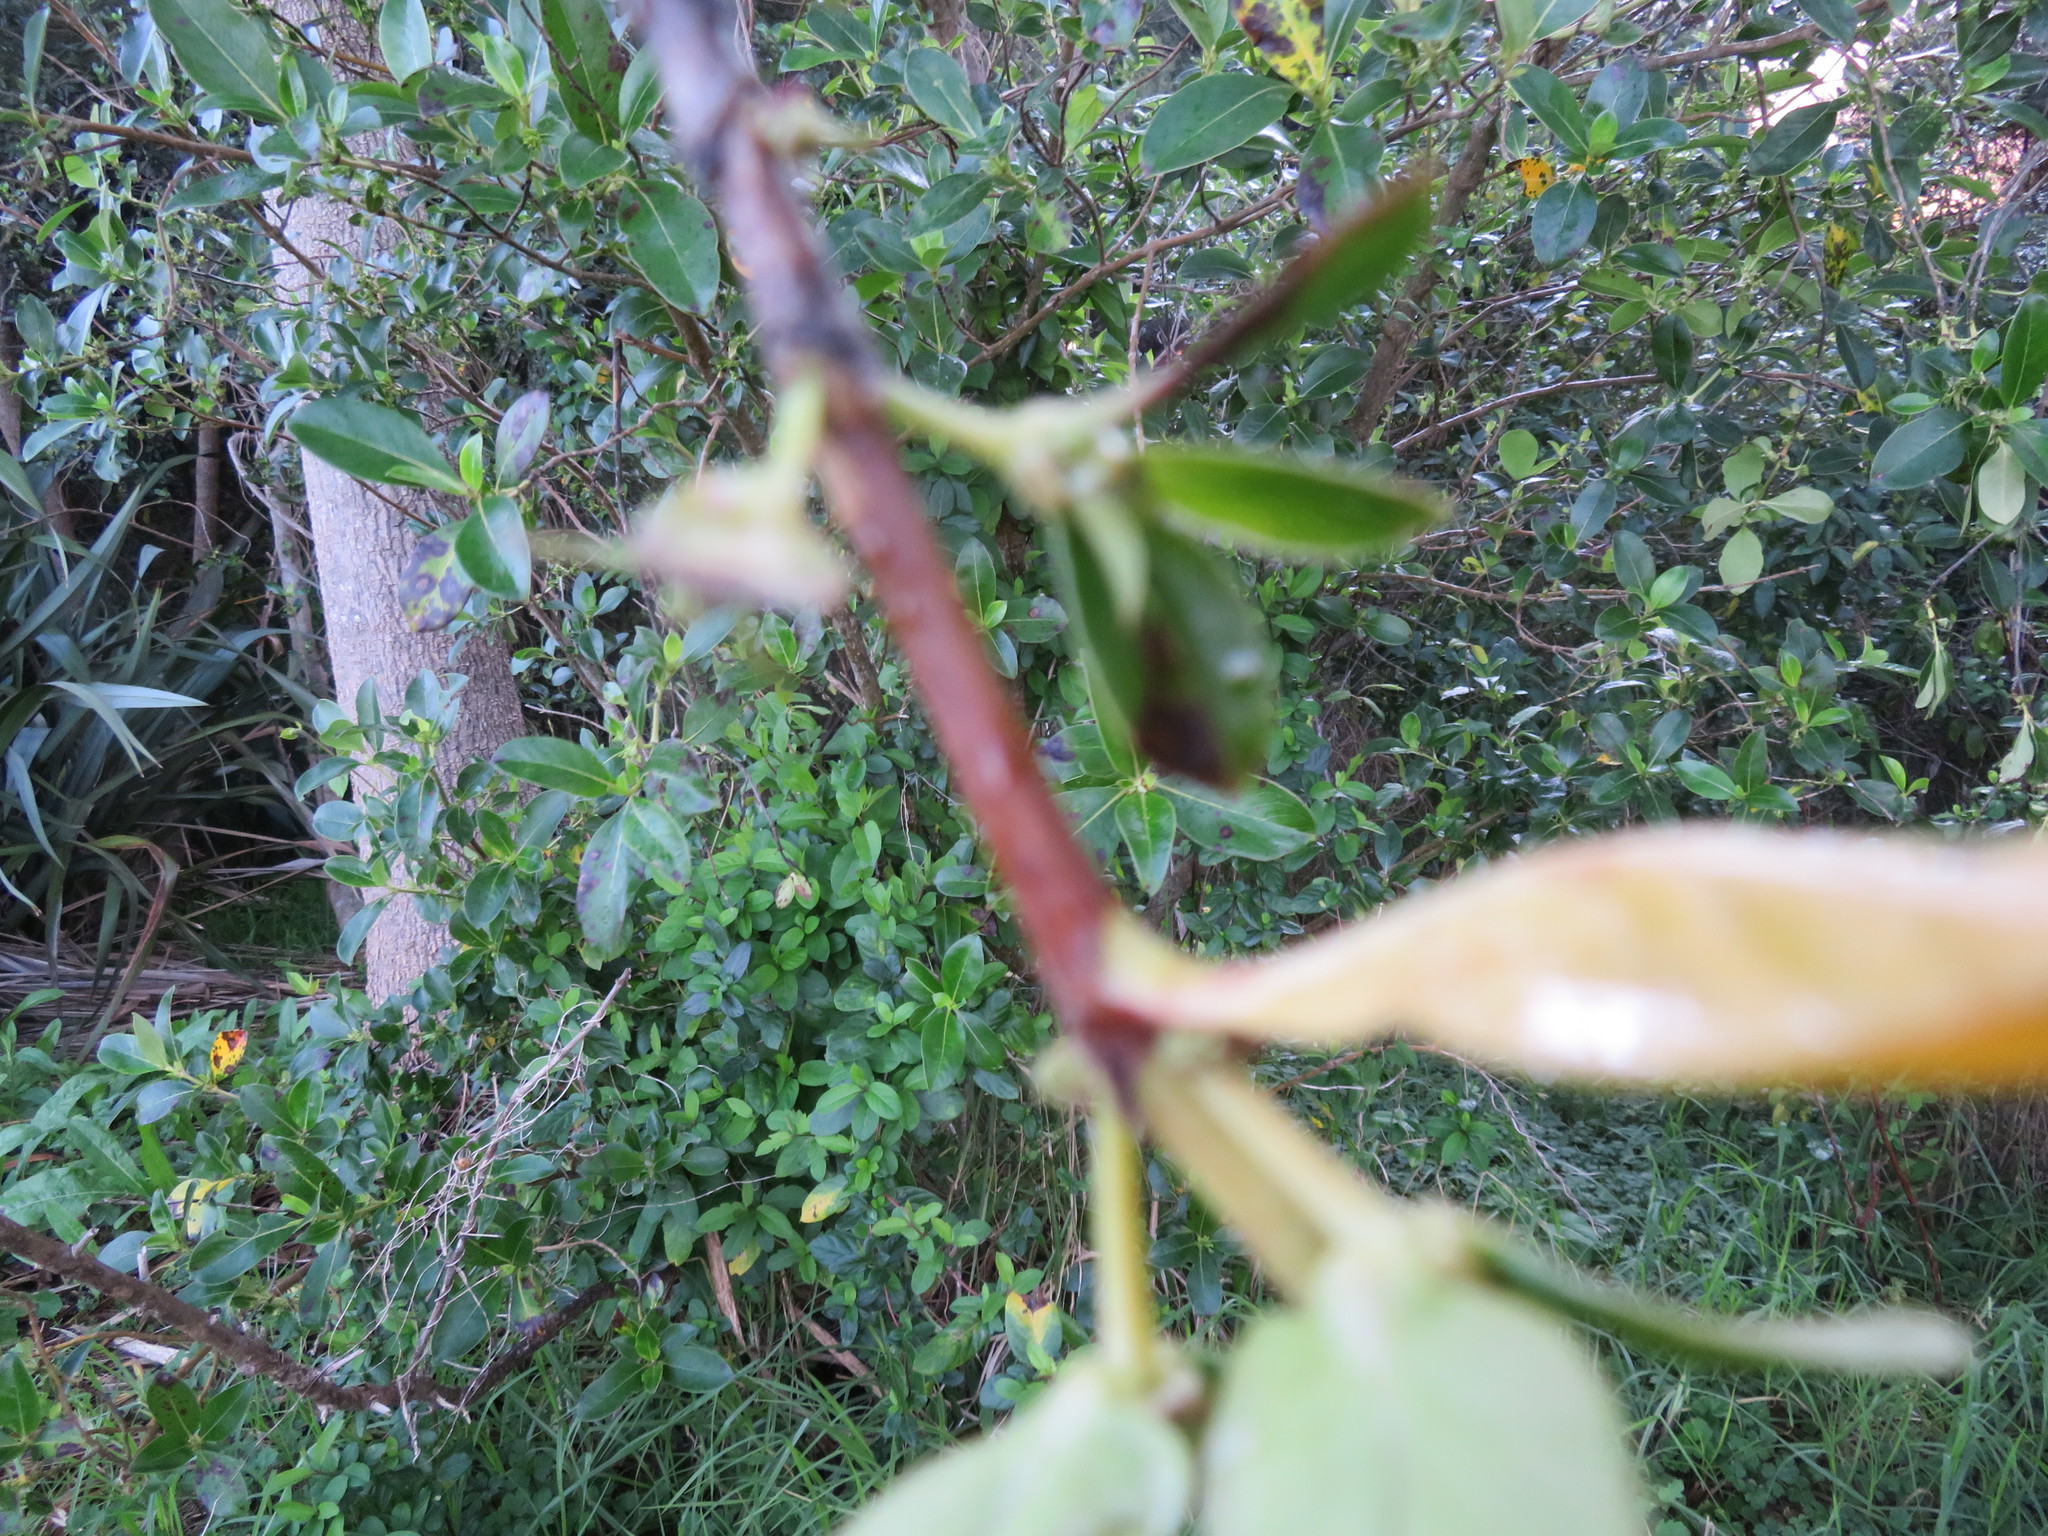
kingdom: Plantae
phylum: Tracheophyta
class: Magnoliopsida
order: Dipsacales
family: Caprifoliaceae
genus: Lonicera
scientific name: Lonicera japonica
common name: Japanese honeysuckle
